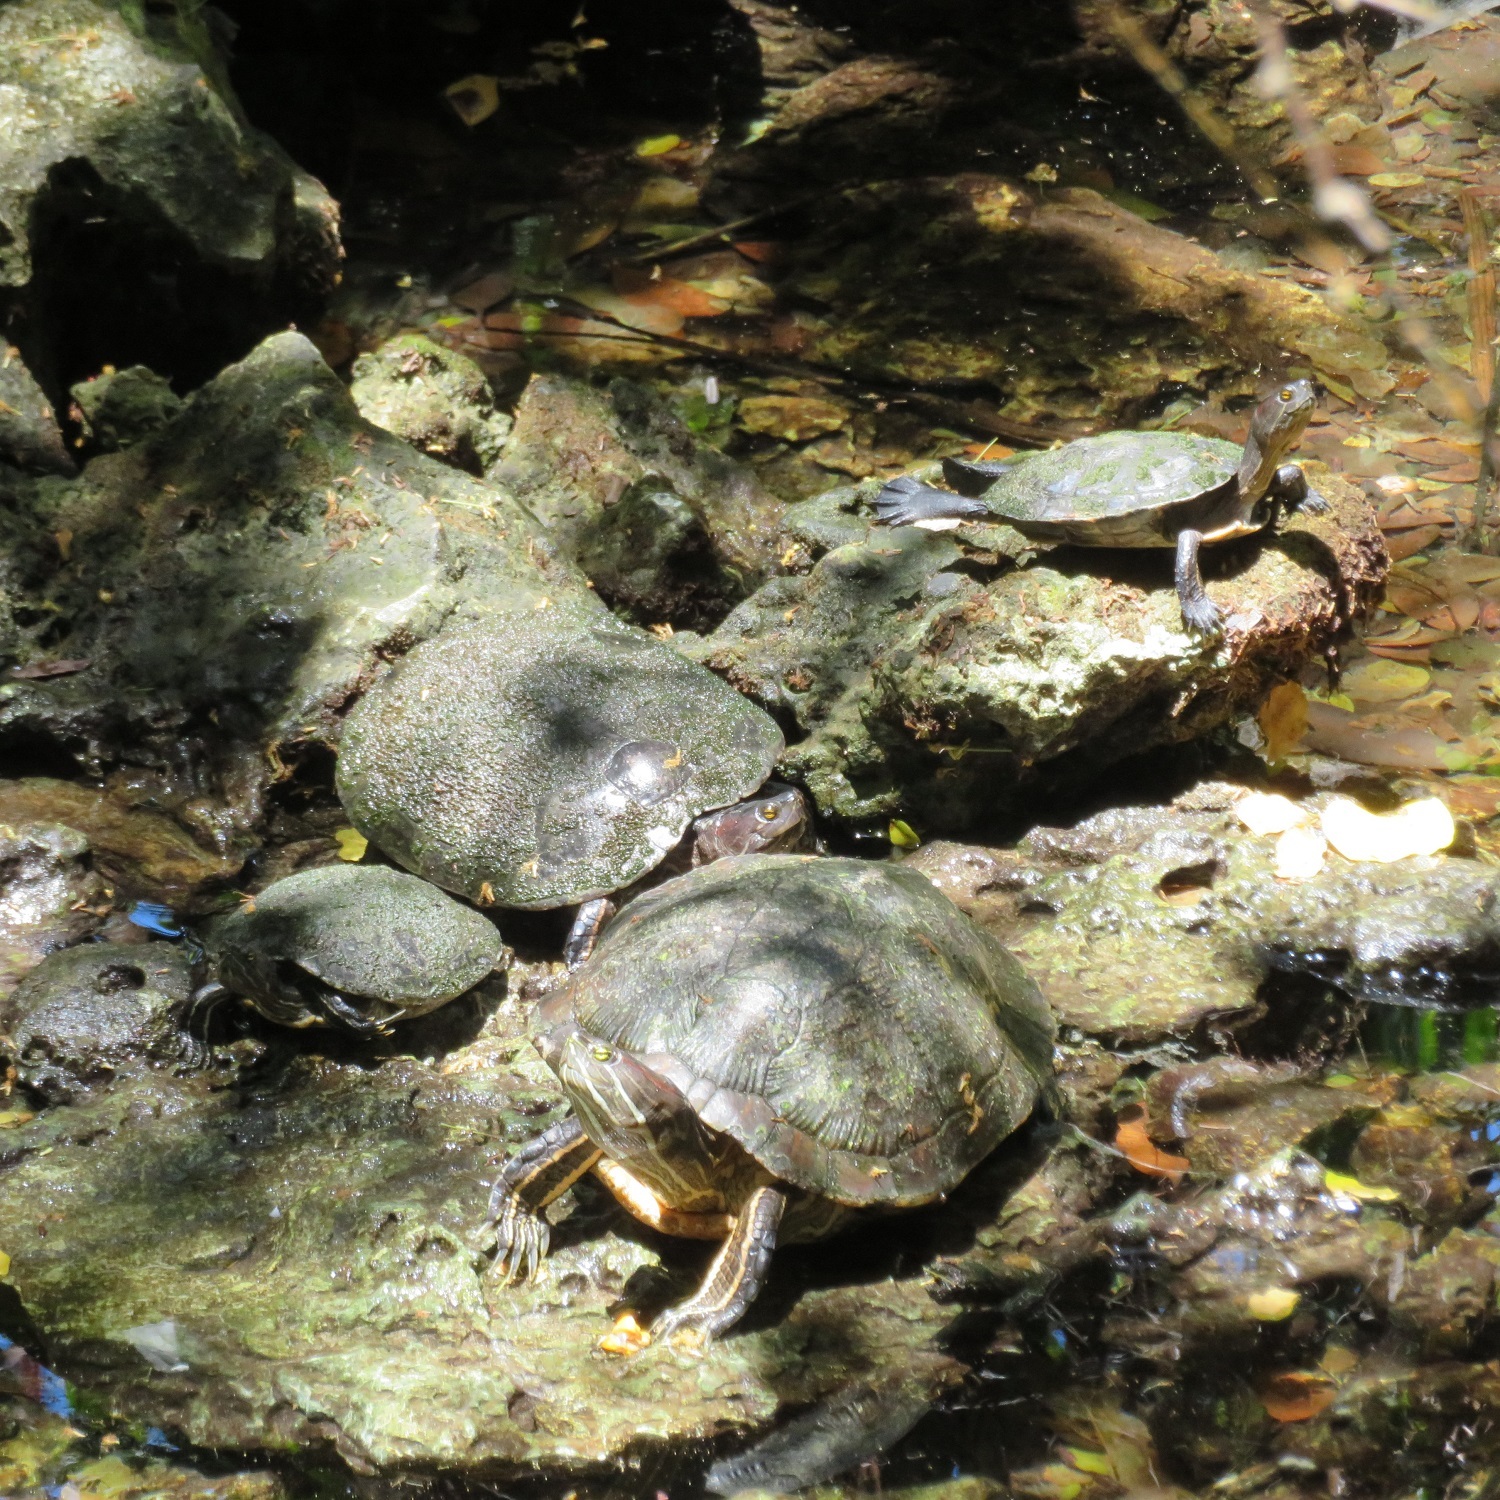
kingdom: Animalia
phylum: Chordata
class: Testudines
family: Emydidae
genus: Trachemys
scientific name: Trachemys scripta
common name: Slider
